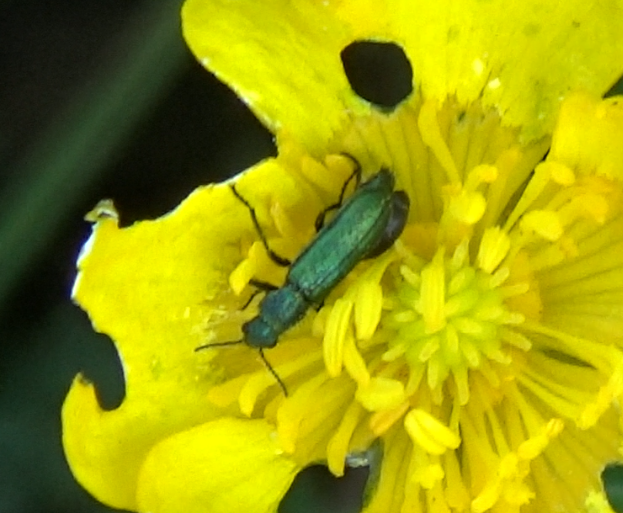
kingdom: Animalia
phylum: Arthropoda
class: Insecta
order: Coleoptera
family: Dasytidae
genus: Psilothrix
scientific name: Psilothrix viridicoerulea
